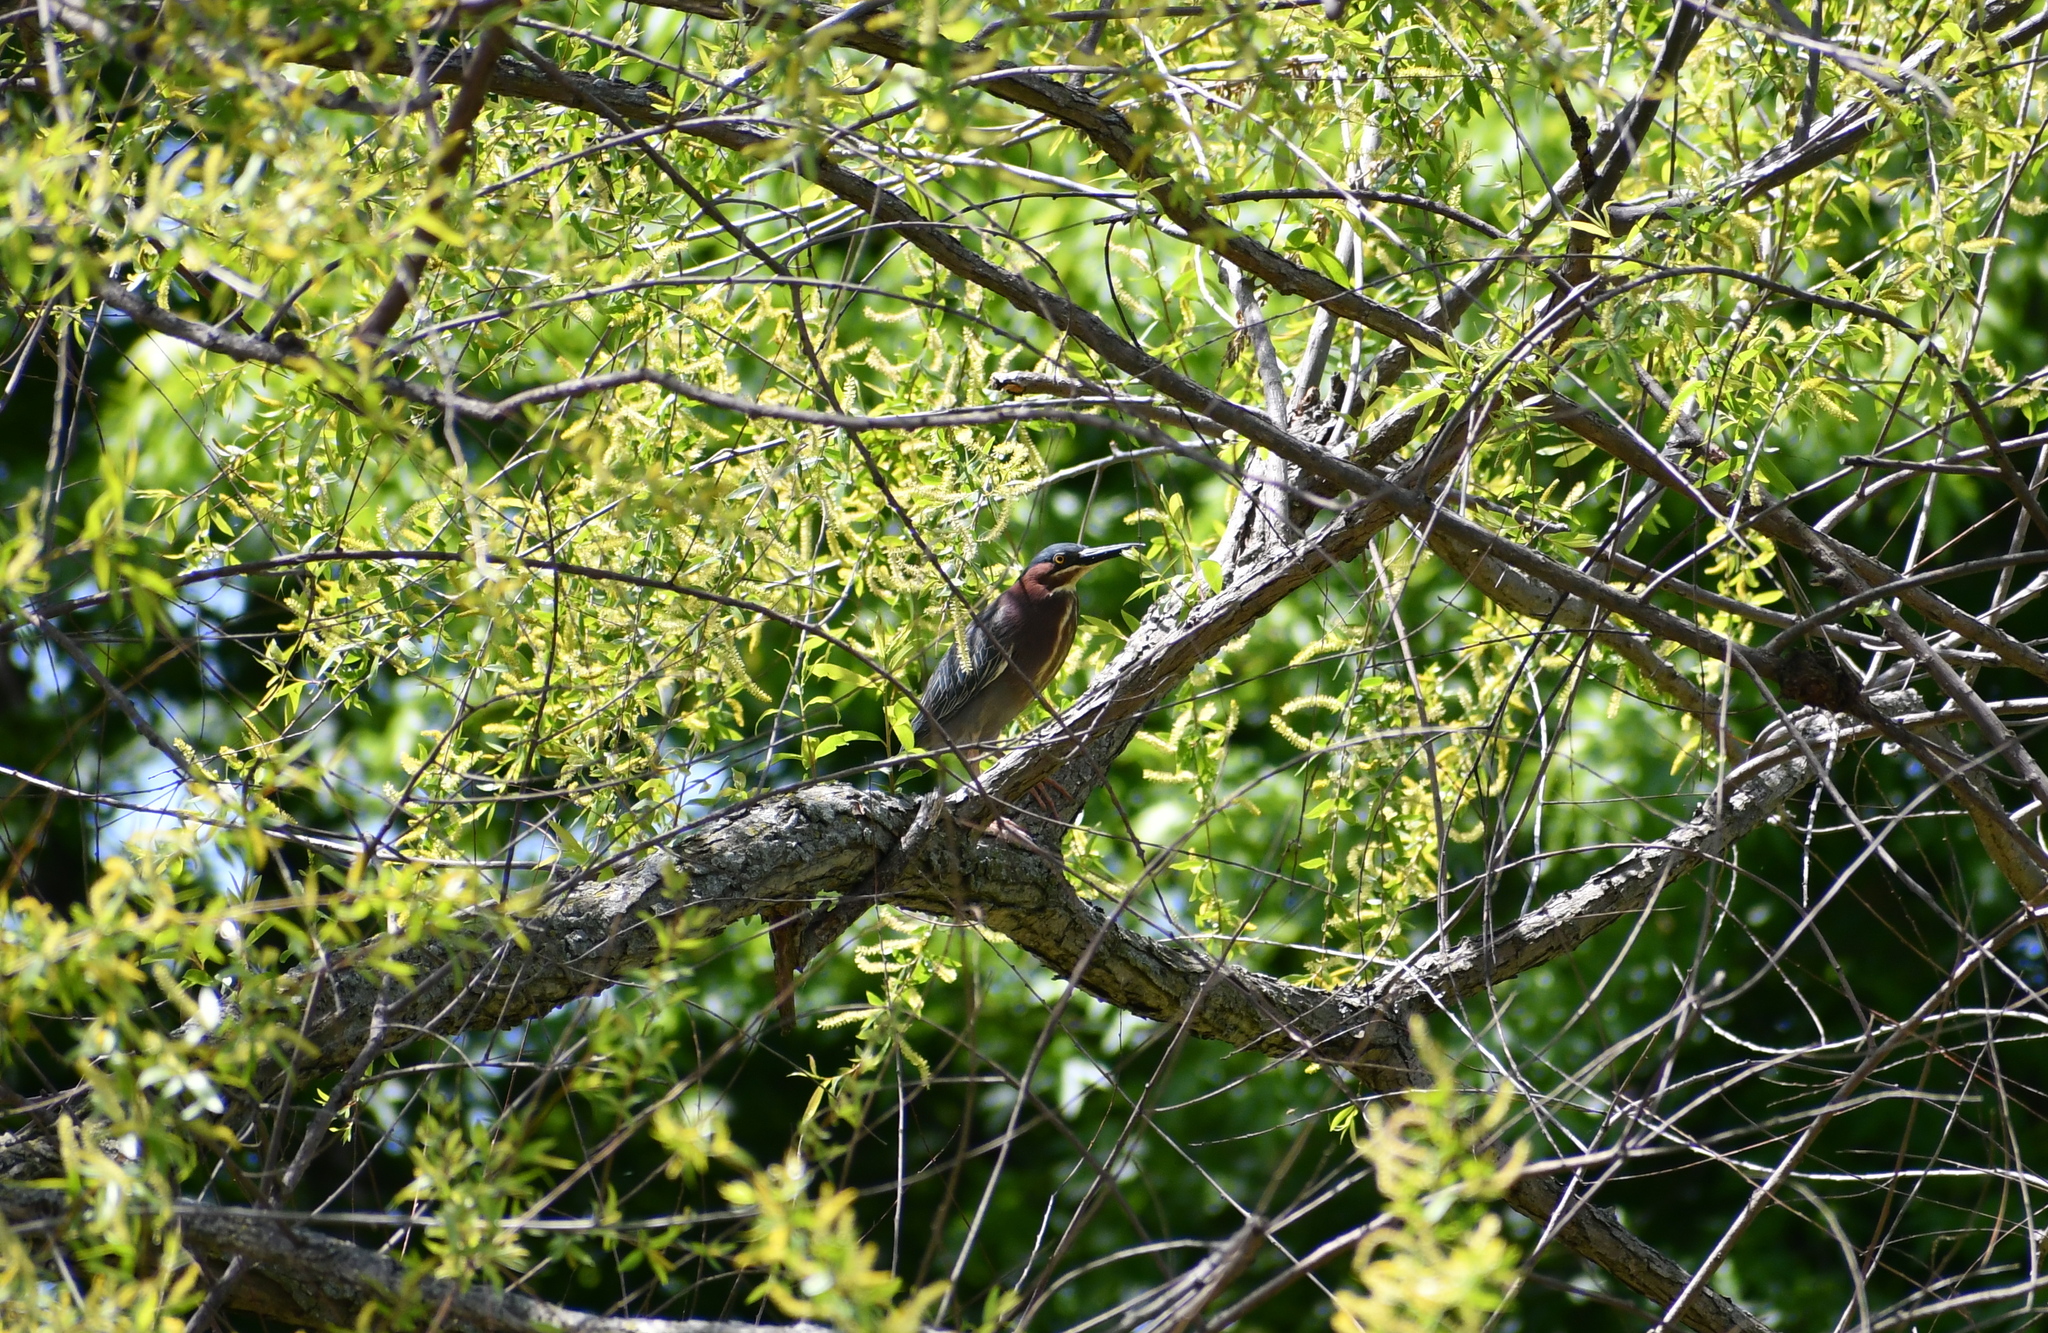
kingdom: Animalia
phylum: Chordata
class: Aves
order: Pelecaniformes
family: Ardeidae
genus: Butorides
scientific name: Butorides virescens
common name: Green heron
